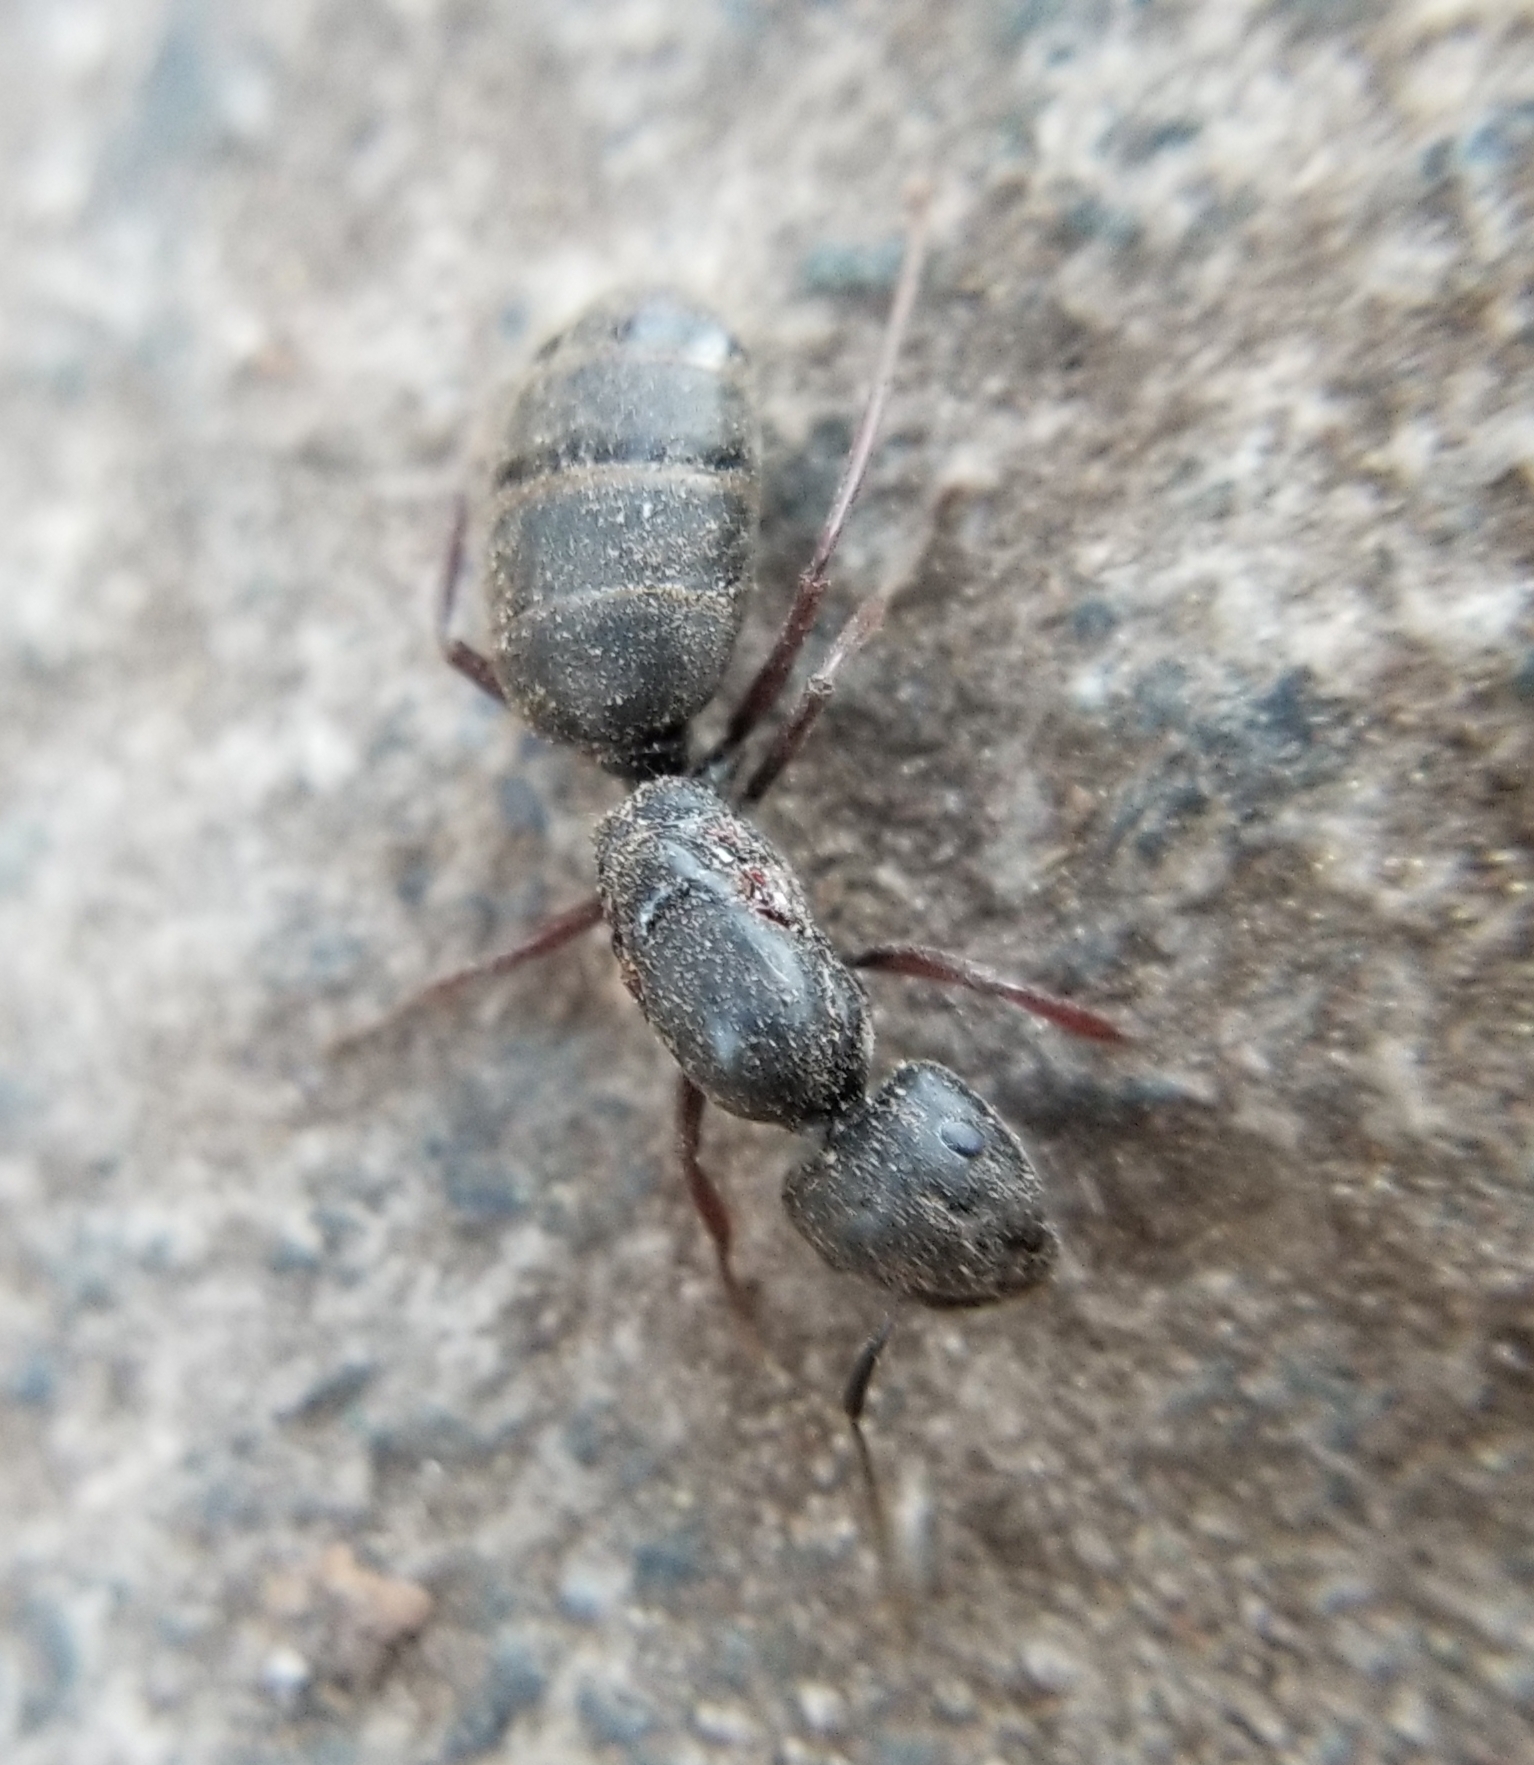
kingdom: Animalia
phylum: Arthropoda
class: Insecta
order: Hymenoptera
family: Formicidae
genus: Camponotus
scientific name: Camponotus modoc
